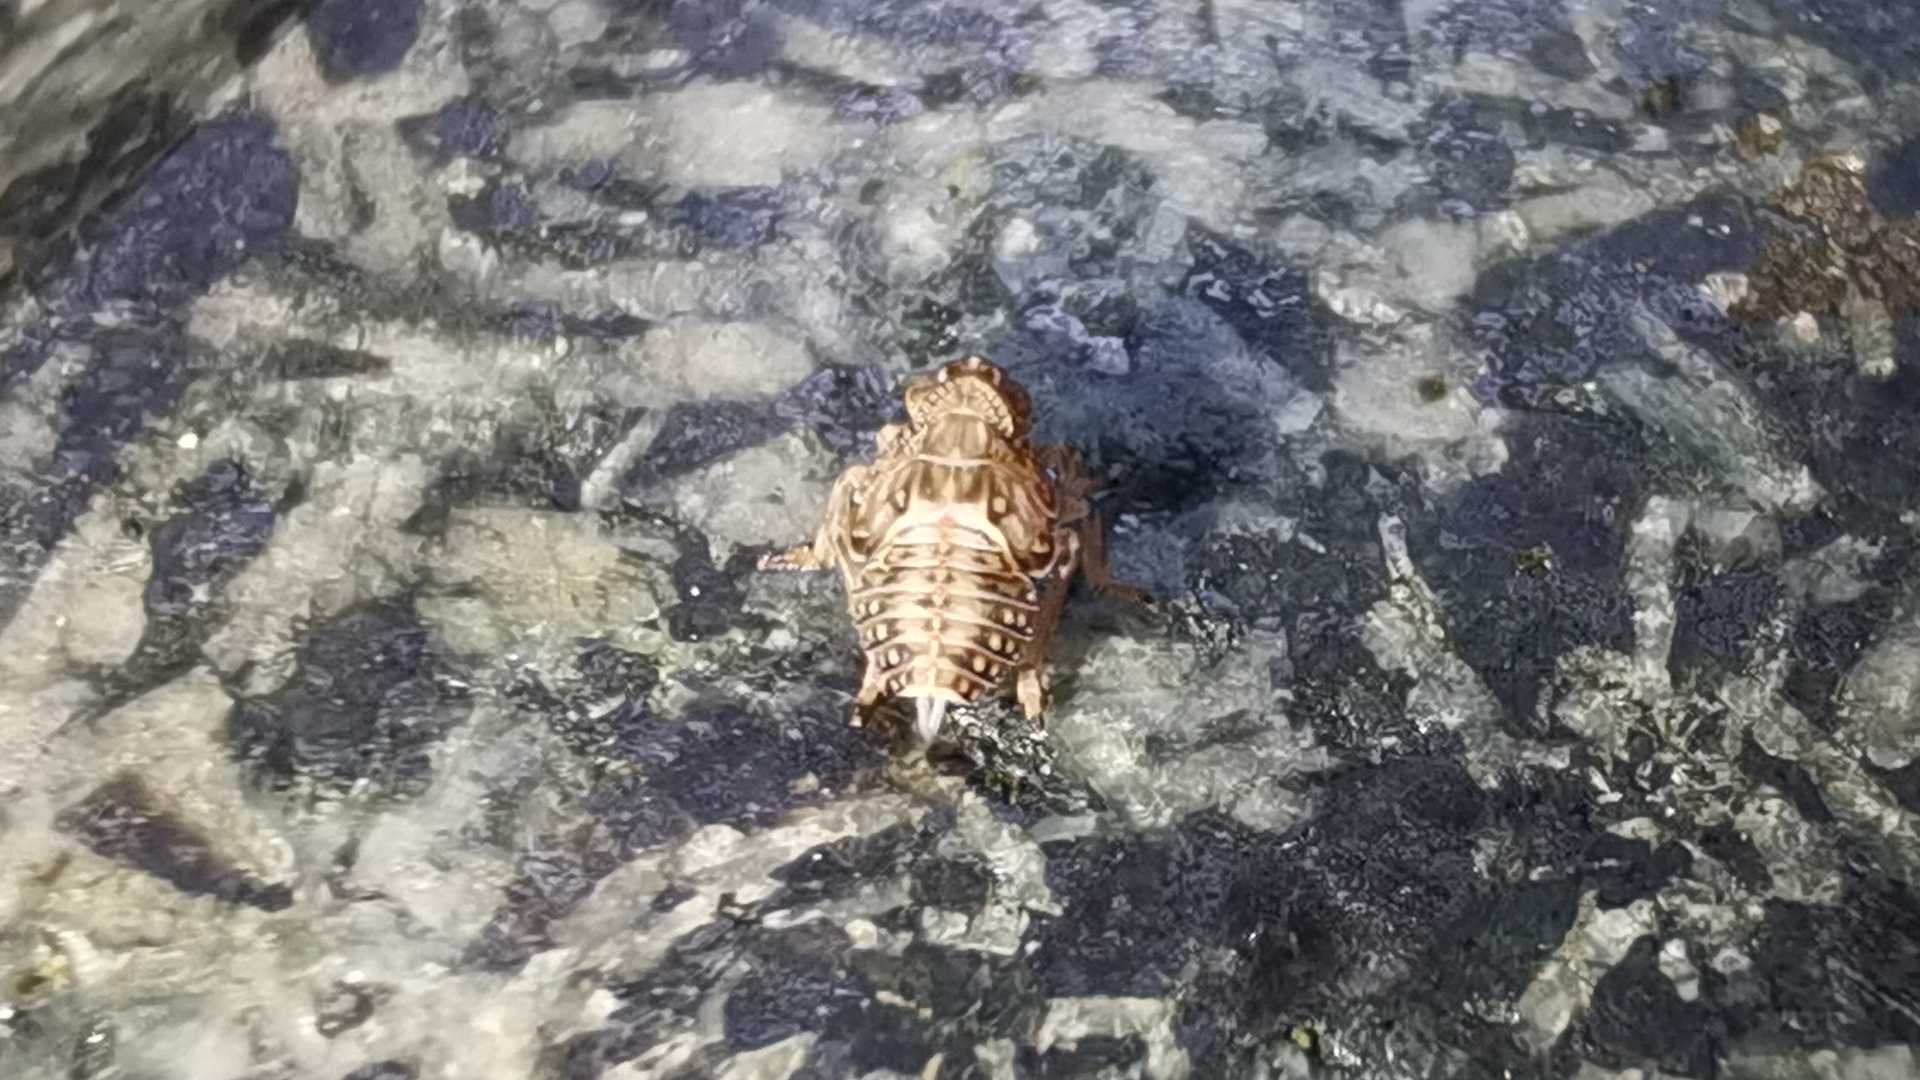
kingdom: Animalia
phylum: Arthropoda
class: Insecta
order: Hemiptera
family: Issidae
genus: Issus
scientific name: Issus
